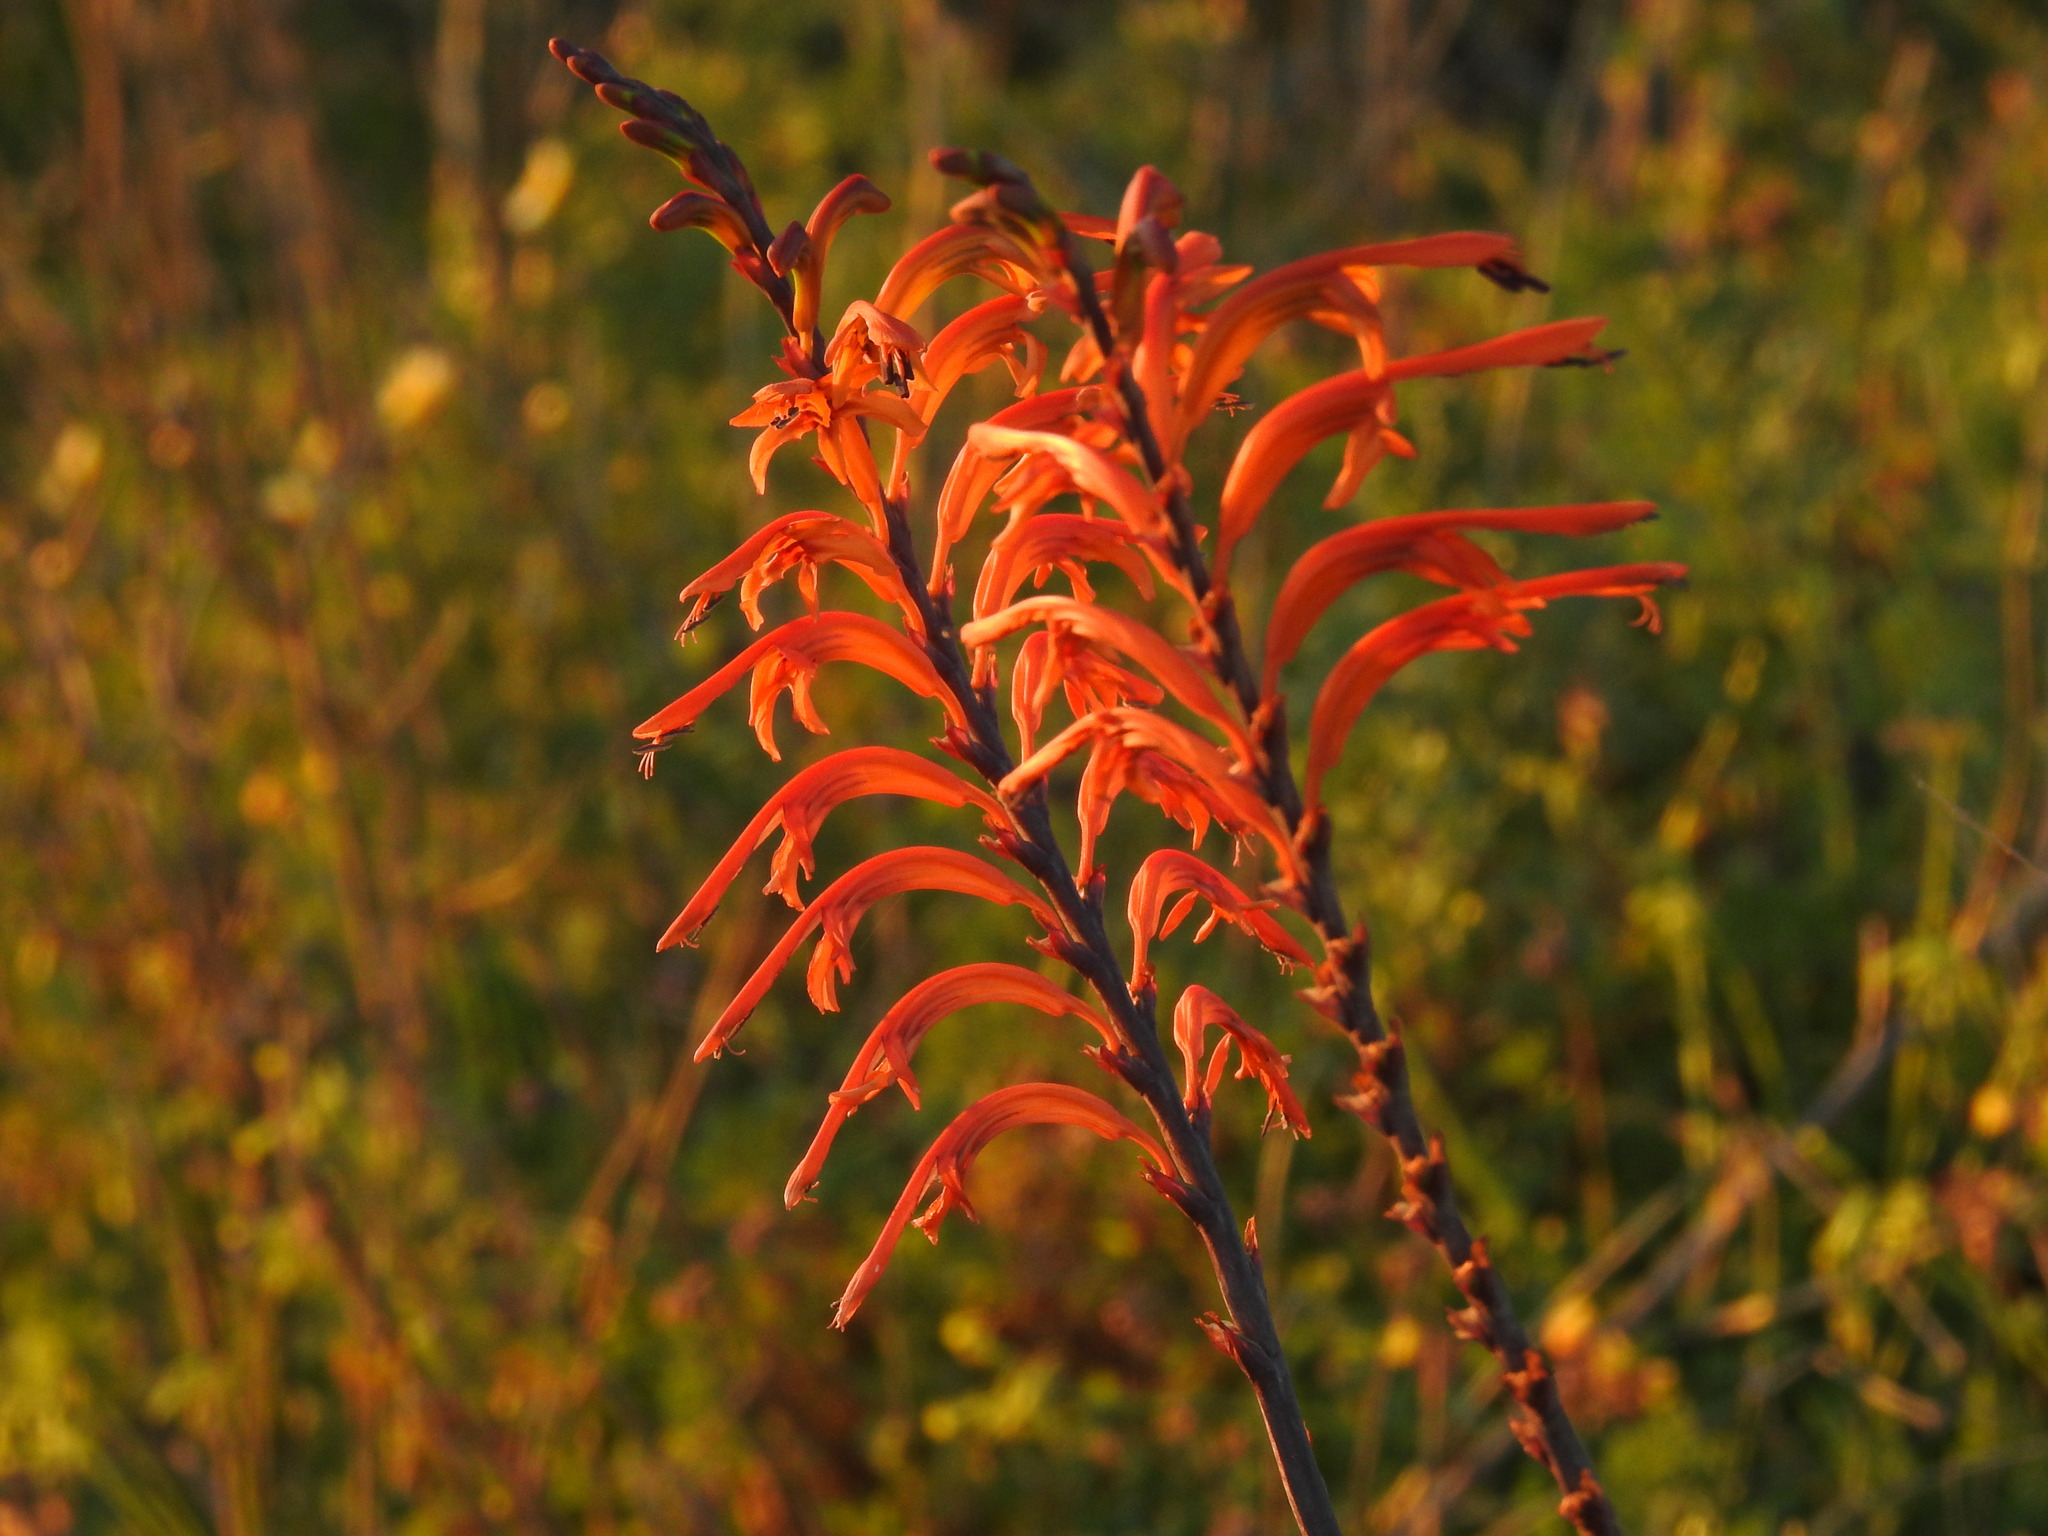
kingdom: Plantae
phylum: Tracheophyta
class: Liliopsida
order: Asparagales
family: Iridaceae
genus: Chasmanthe
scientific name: Chasmanthe floribunda
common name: African cornflag
